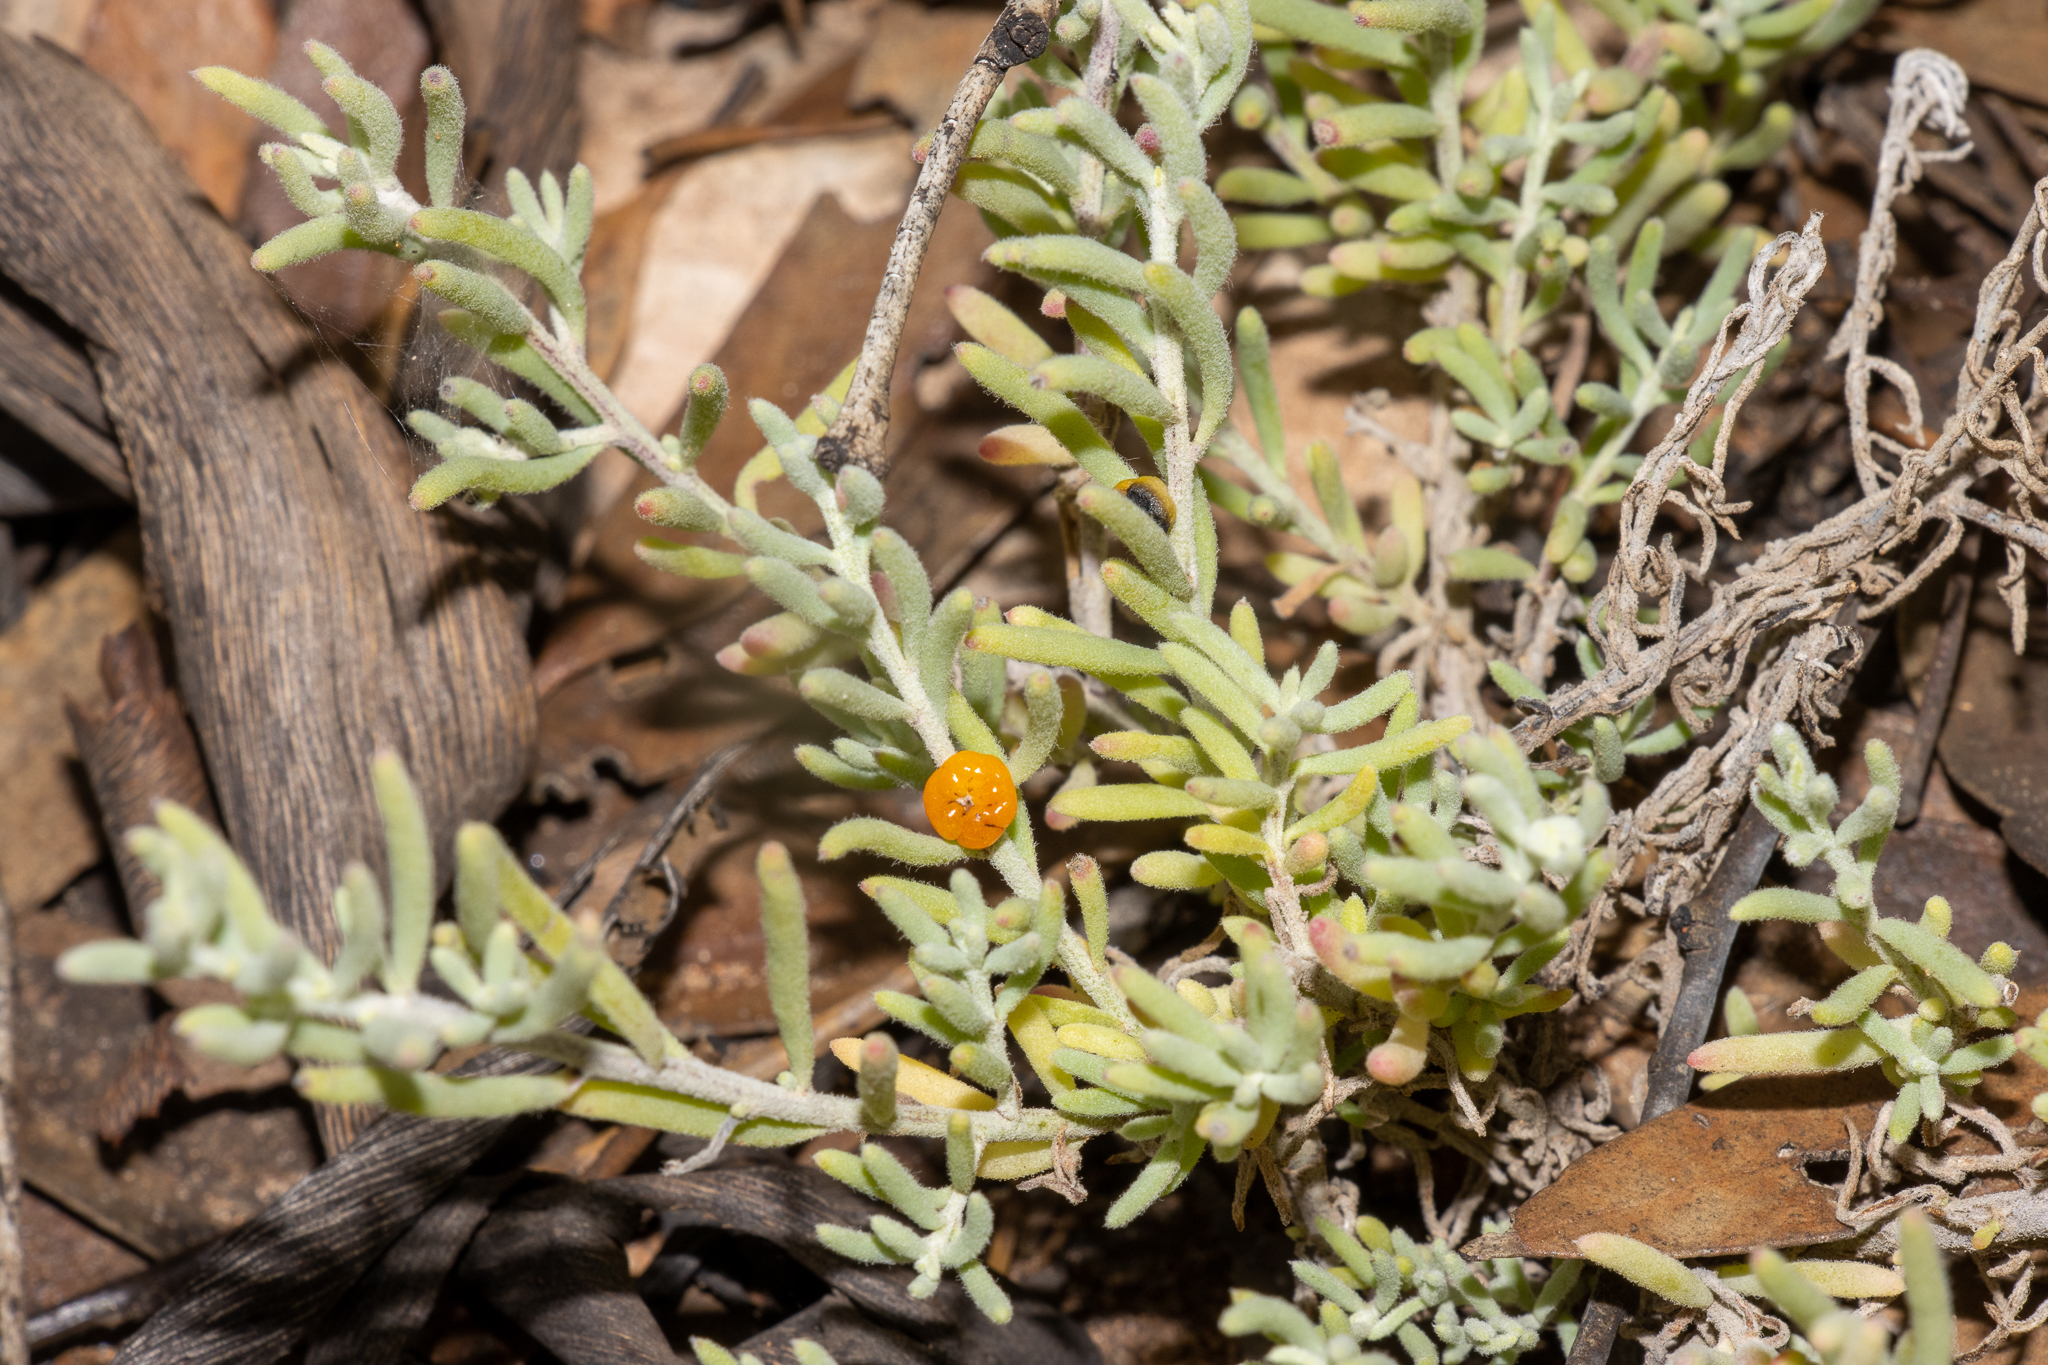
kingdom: Plantae
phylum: Tracheophyta
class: Magnoliopsida
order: Caryophyllales
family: Amaranthaceae
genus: Enchylaena
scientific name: Enchylaena tomentosa
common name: Ruby saltbush
